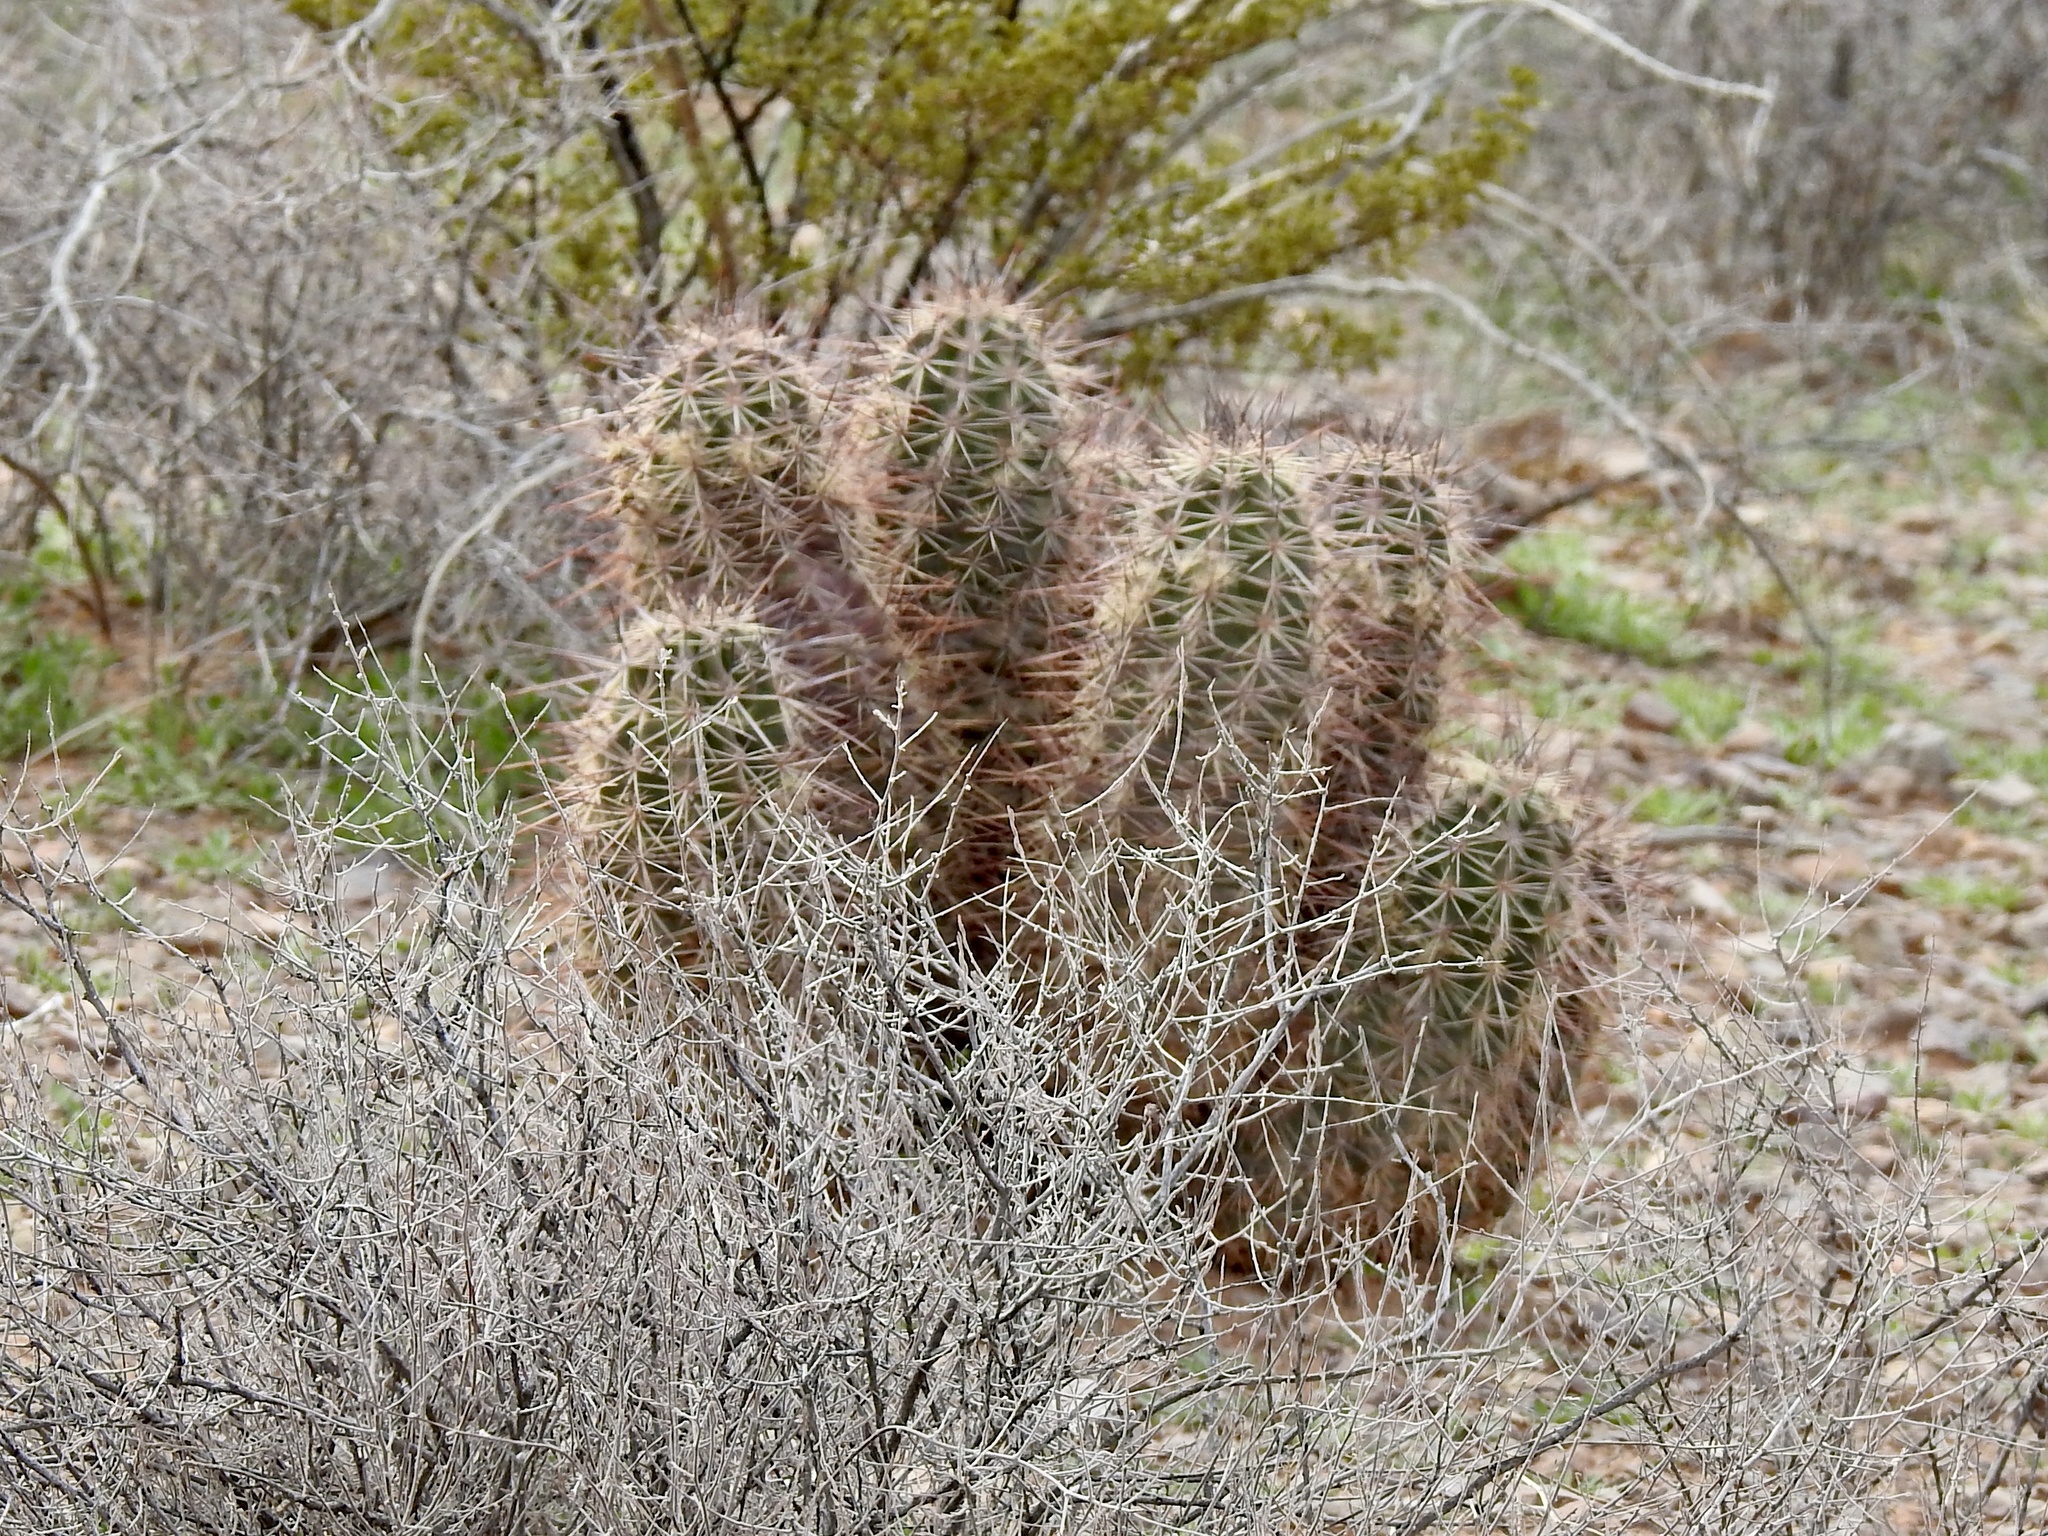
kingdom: Plantae
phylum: Tracheophyta
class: Magnoliopsida
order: Caryophyllales
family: Cactaceae
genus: Echinocereus
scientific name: Echinocereus coccineus
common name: Scarlet hedgehog cactus
